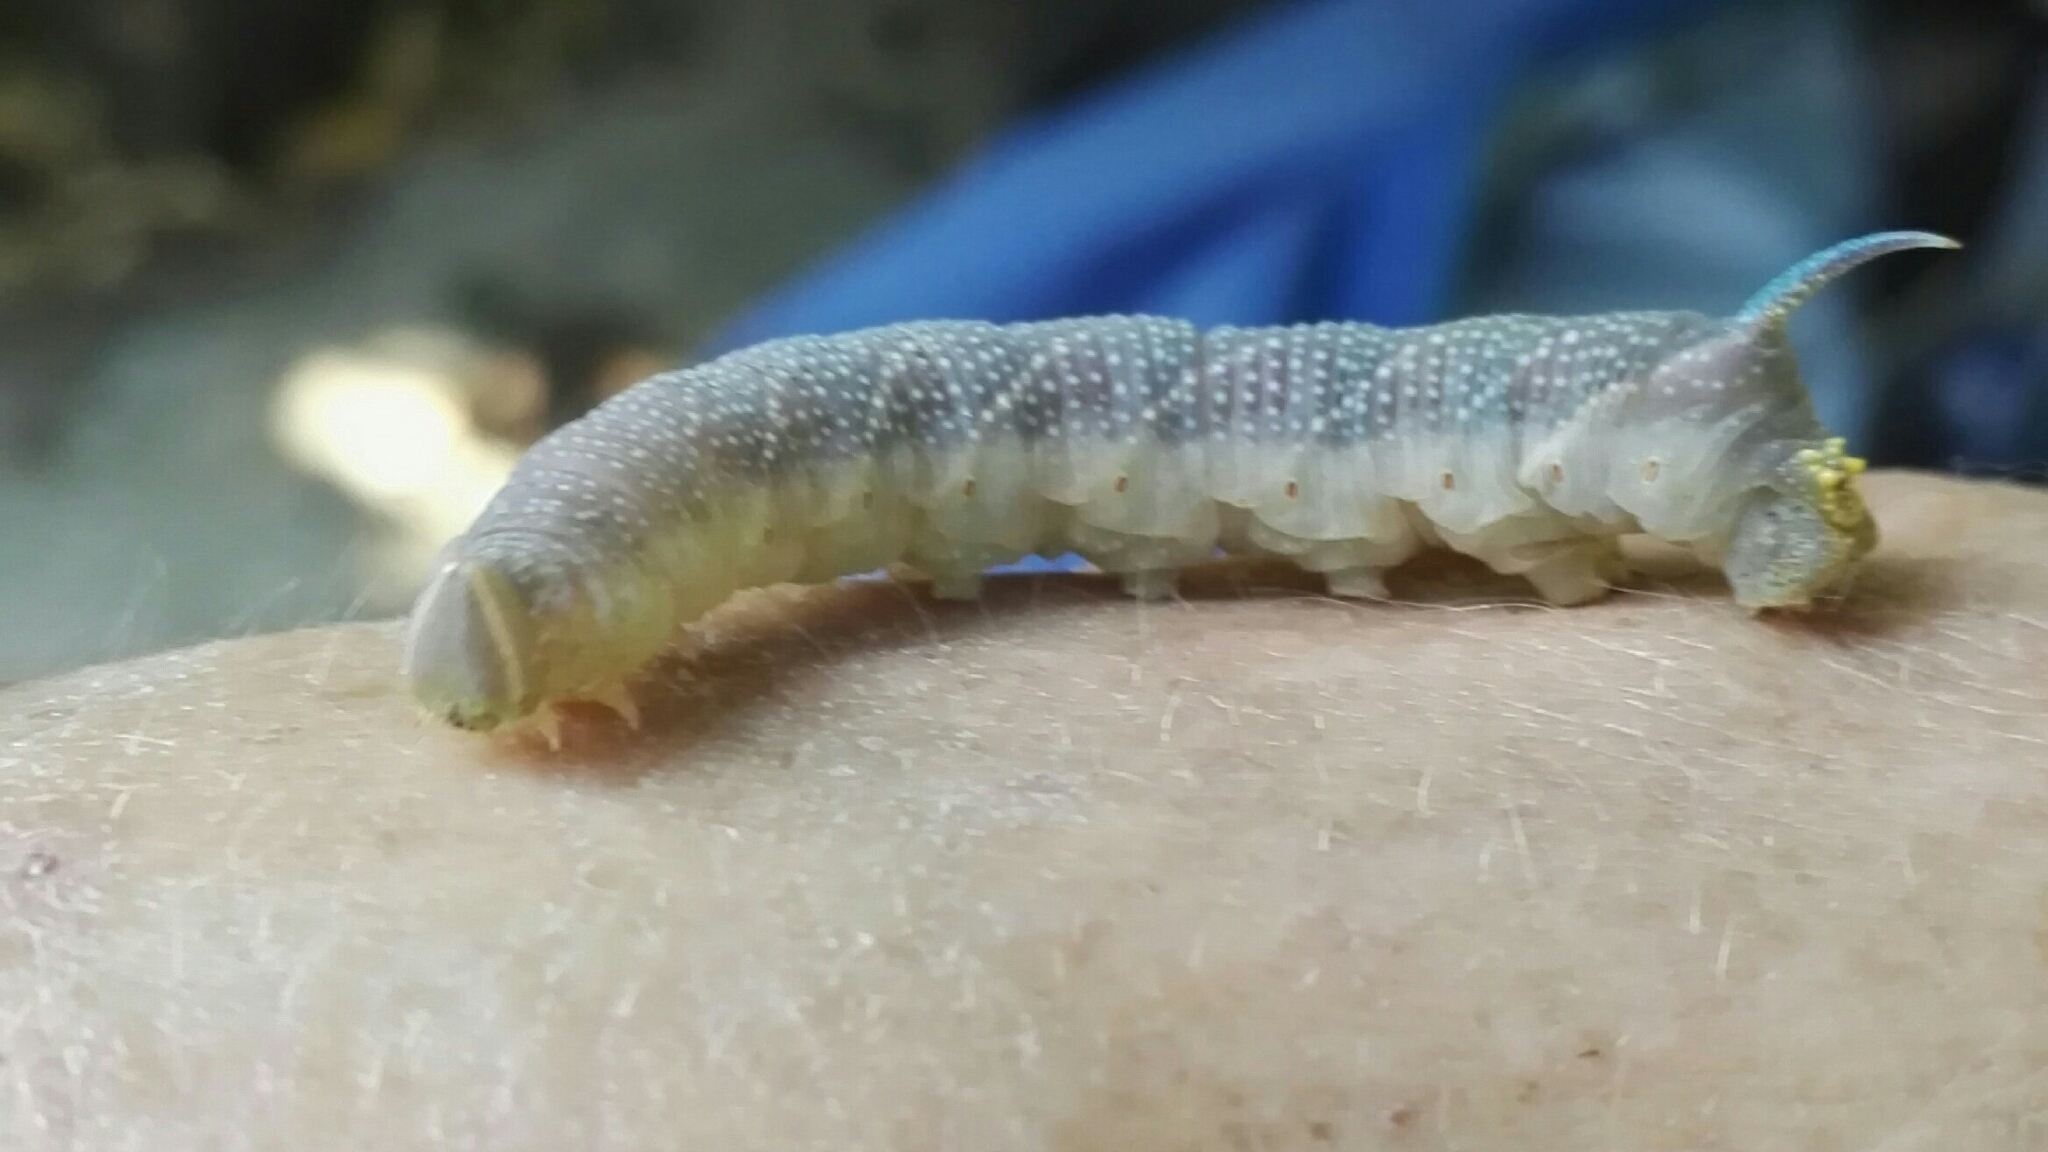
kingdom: Animalia
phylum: Arthropoda
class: Insecta
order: Lepidoptera
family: Sphingidae
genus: Mimas
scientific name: Mimas tiliae
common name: Lime hawk-moth
